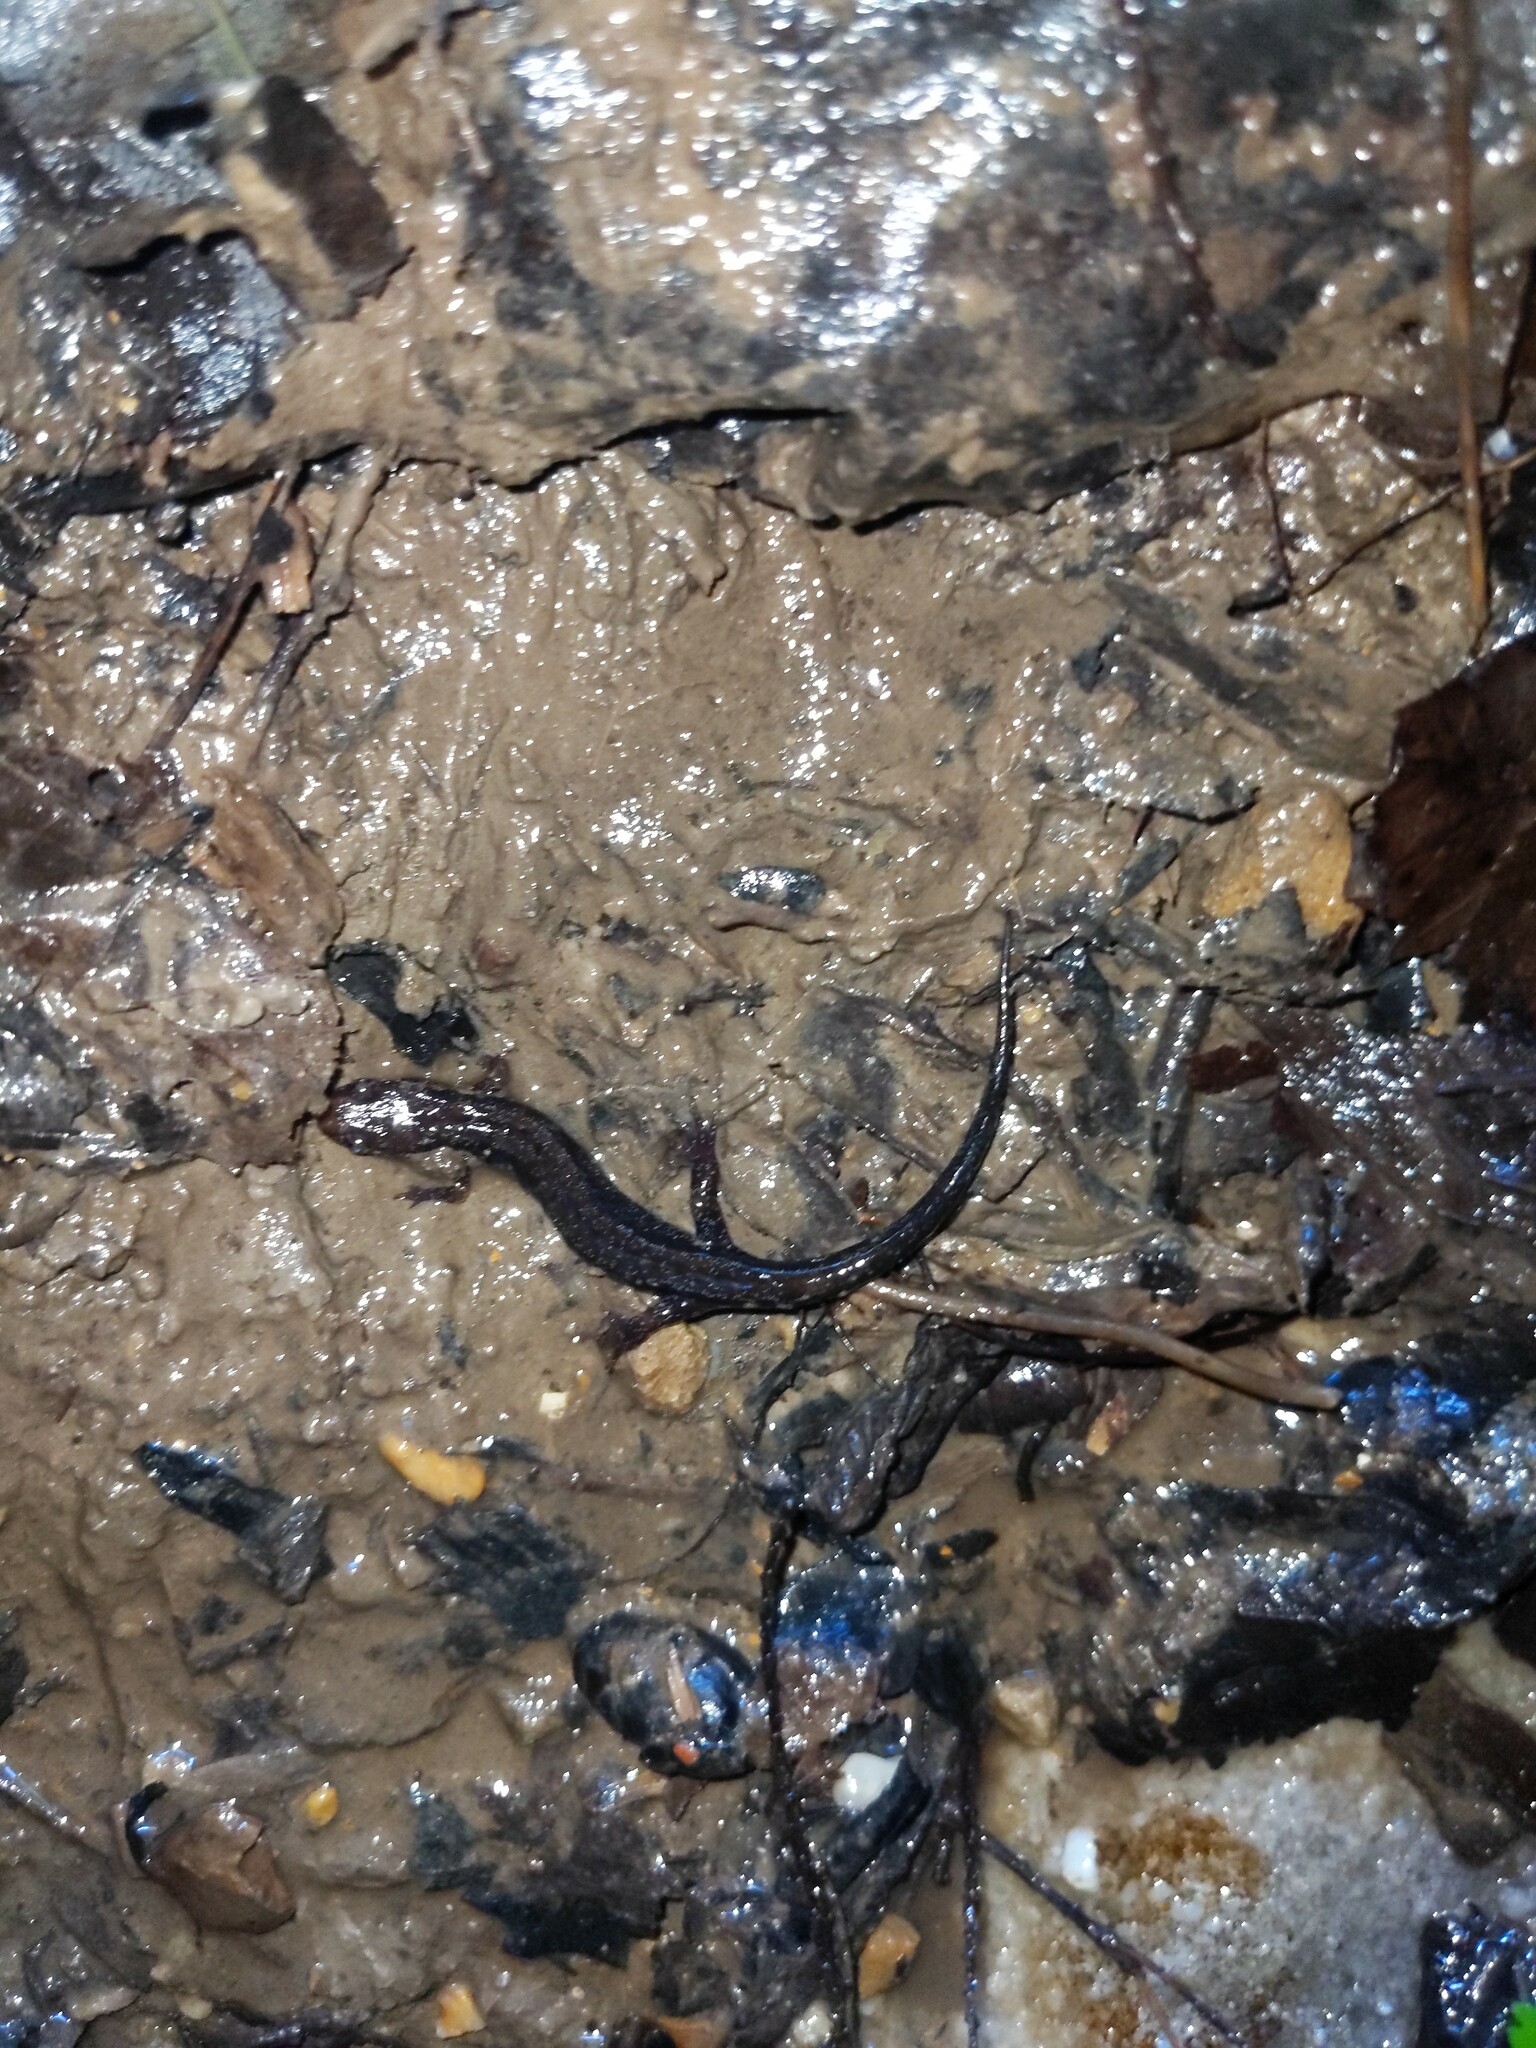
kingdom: Animalia
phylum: Chordata
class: Amphibia
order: Caudata
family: Plethodontidae
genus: Desmognathus
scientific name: Desmognathus ochrophaeus
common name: Allegheny mountain dusky salamander
